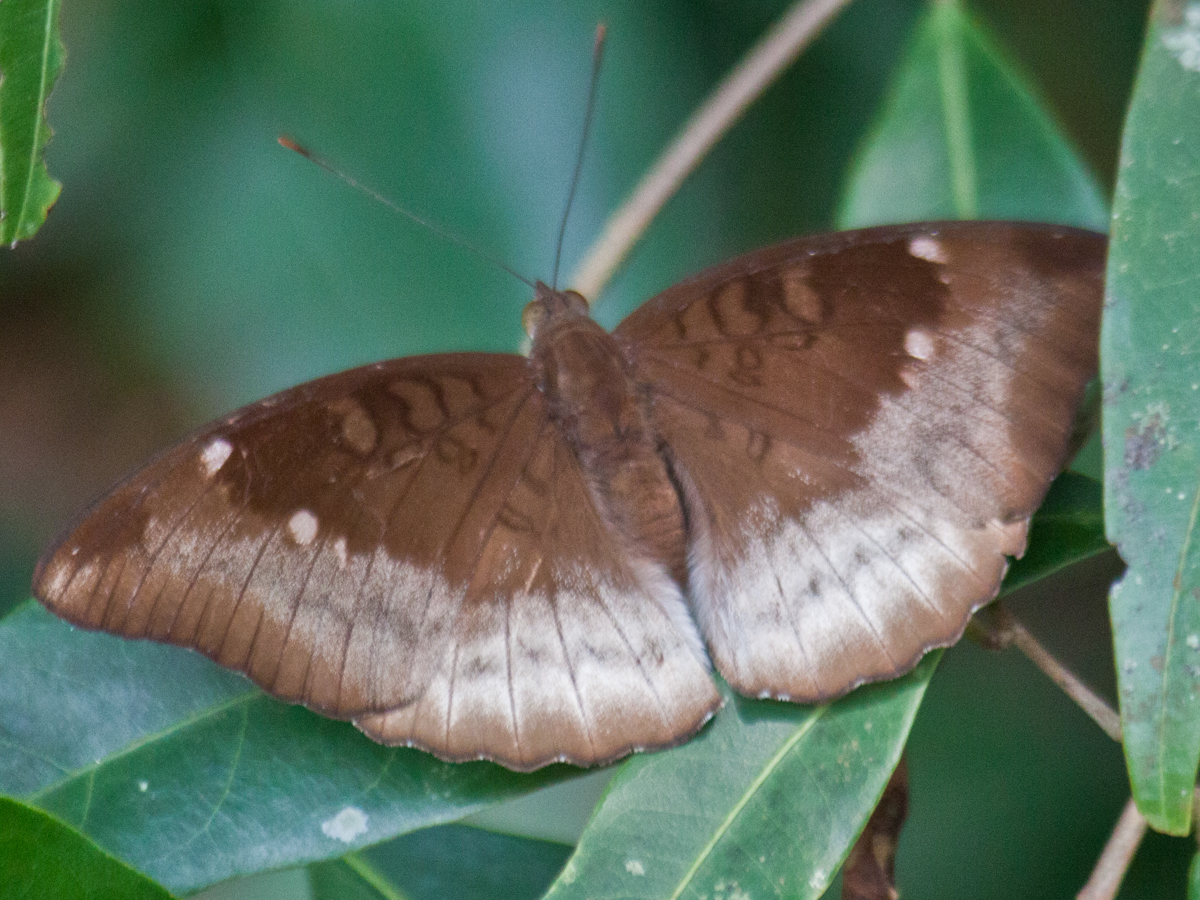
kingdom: Animalia
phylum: Arthropoda
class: Insecta
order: Lepidoptera
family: Nymphalidae
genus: Euthalia
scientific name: Euthalia monina
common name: Powdered baron
